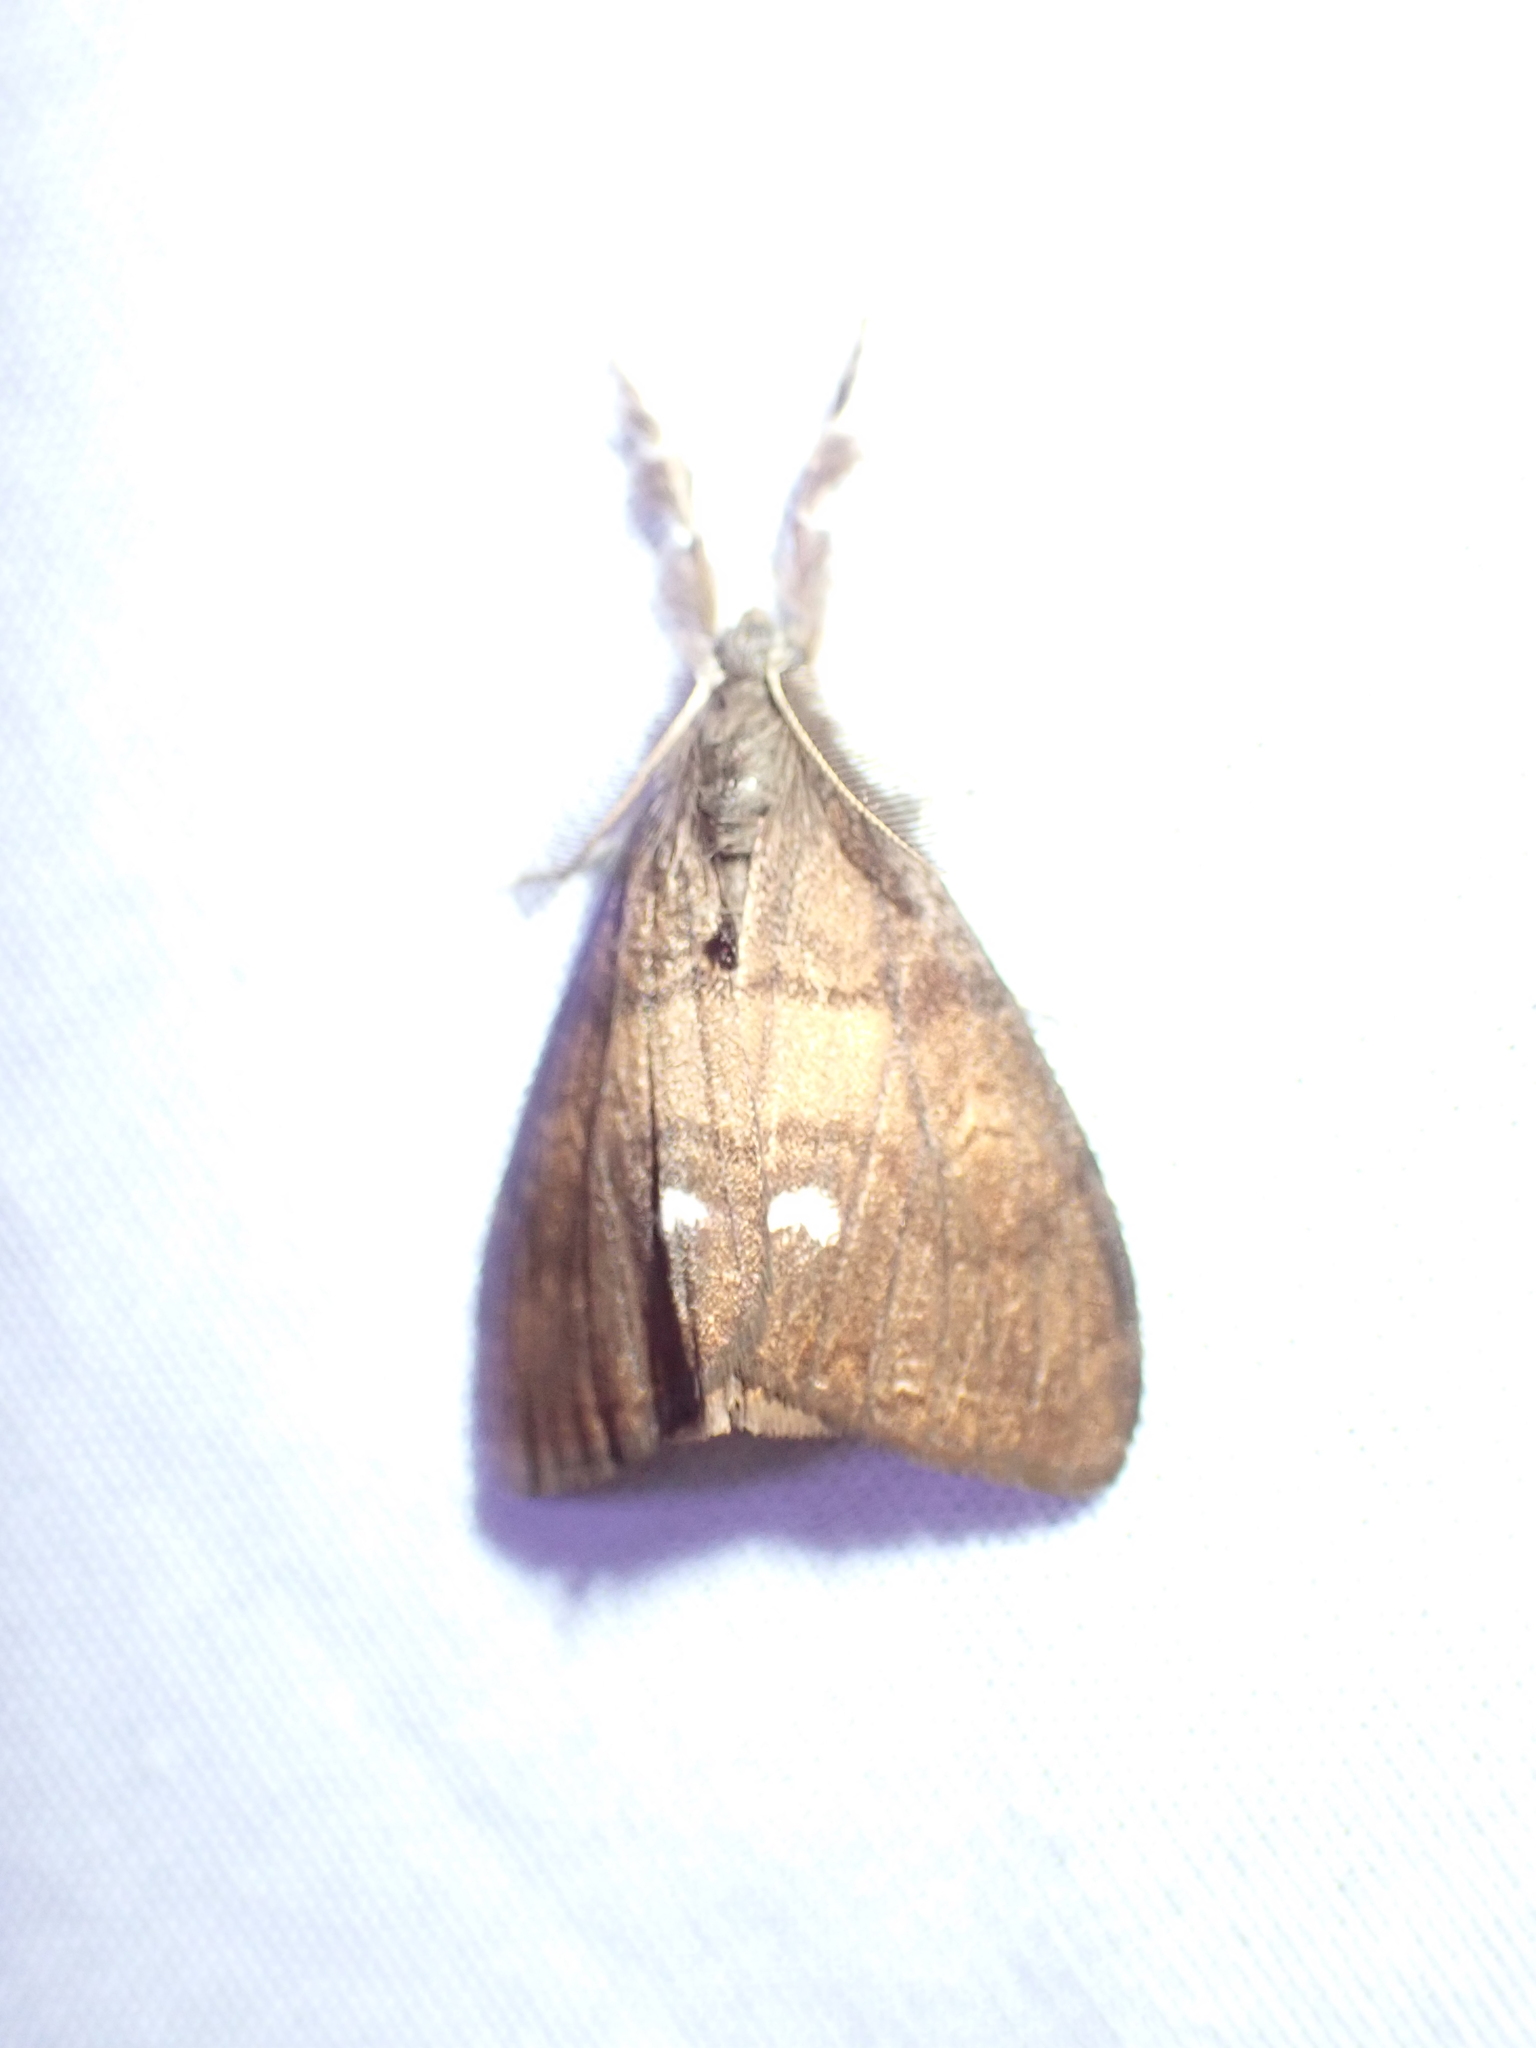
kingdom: Animalia
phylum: Arthropoda
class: Insecta
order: Lepidoptera
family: Erebidae
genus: Orgyia
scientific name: Orgyia antiqua
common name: Vapourer
